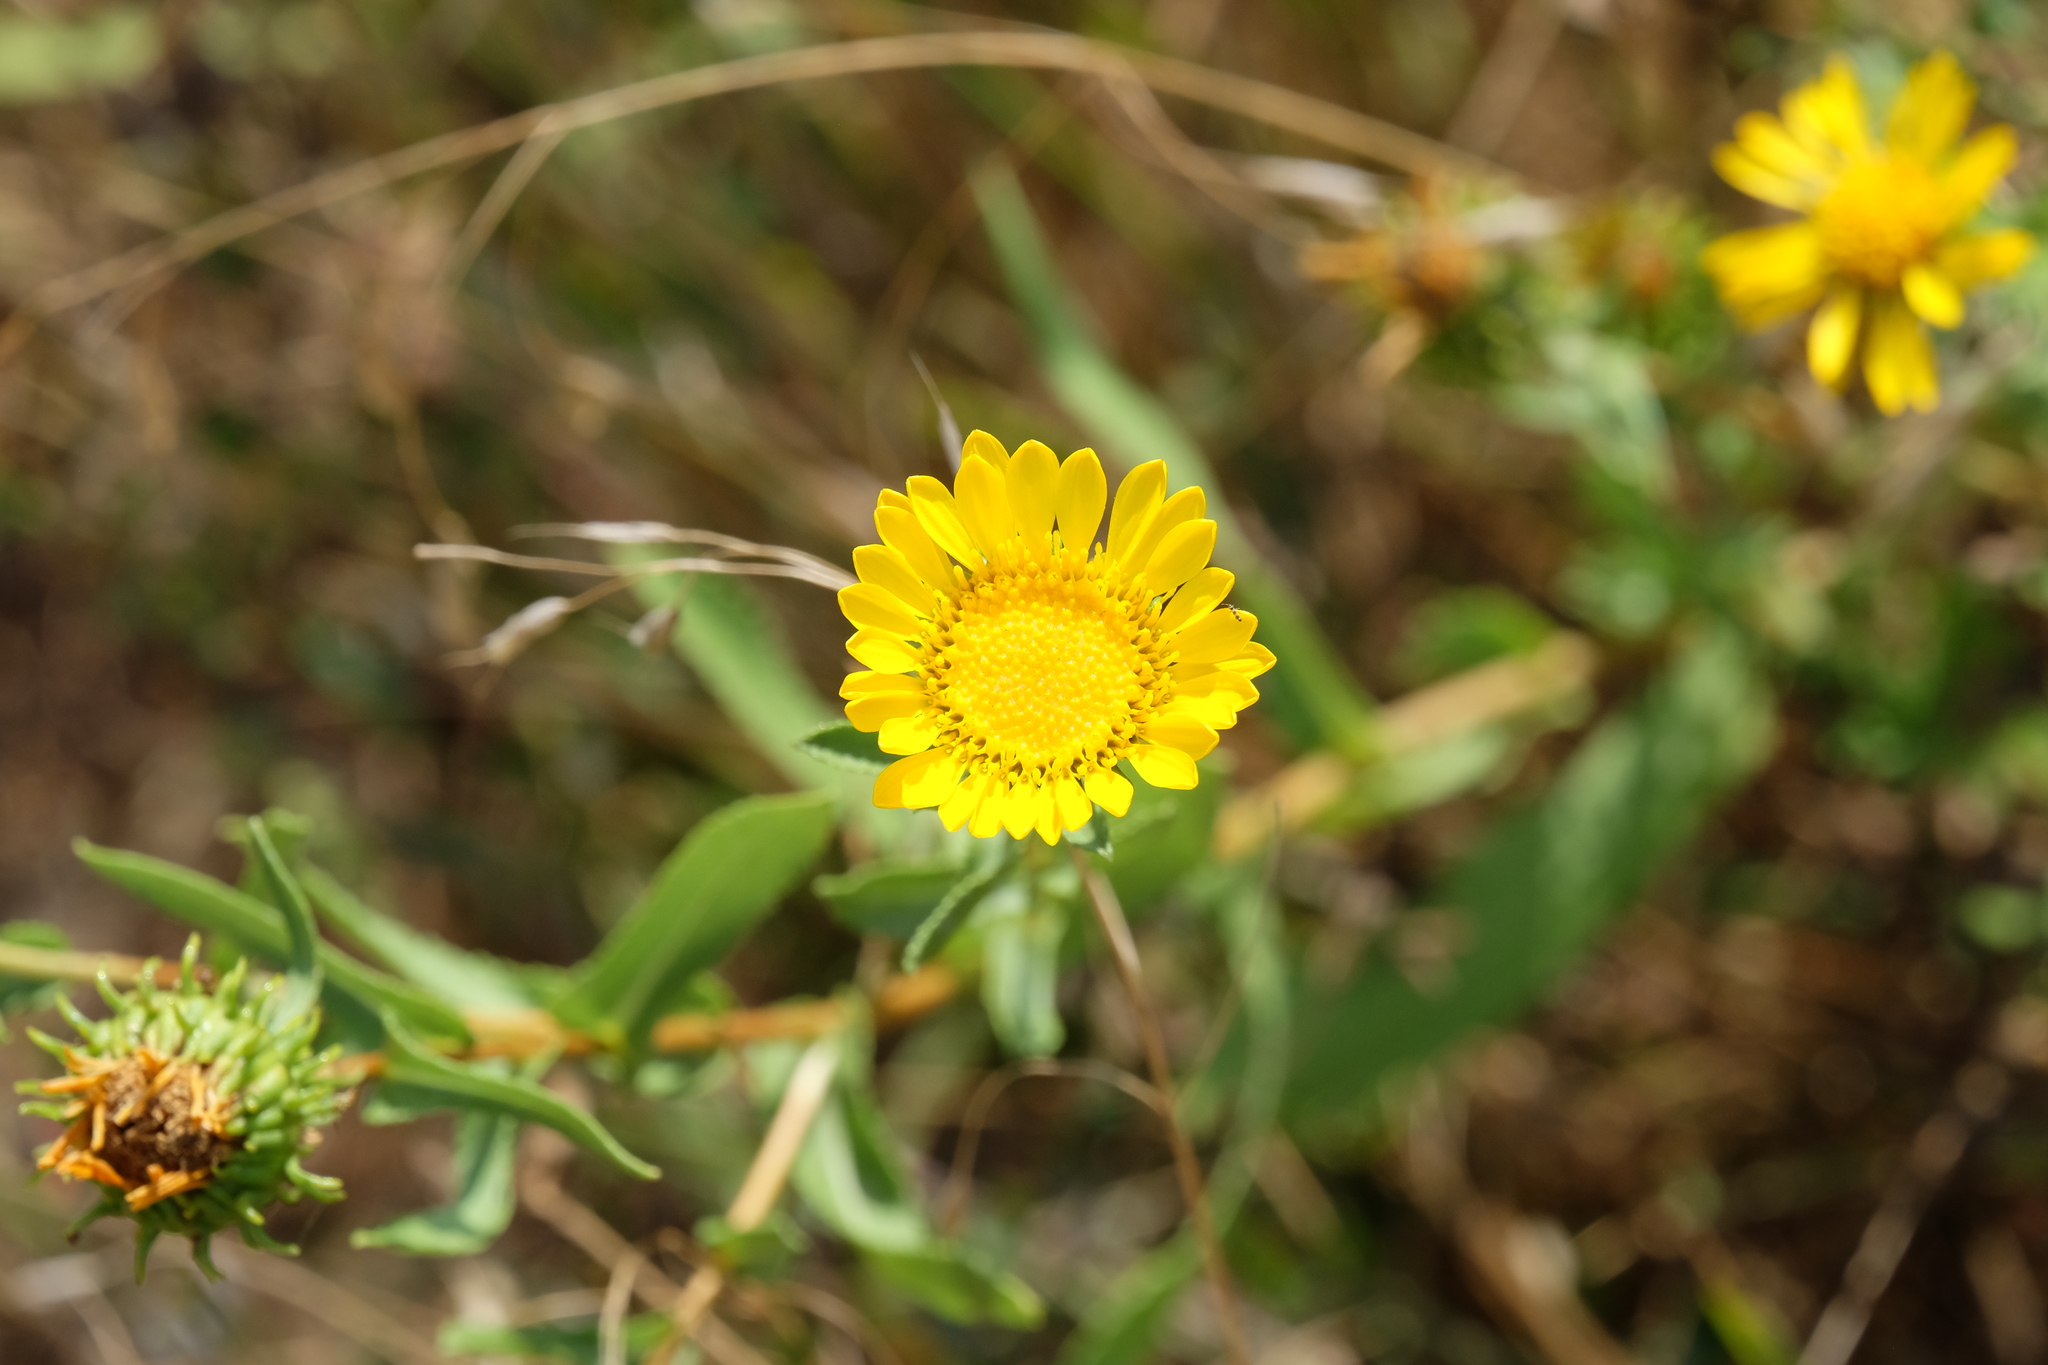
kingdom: Plantae
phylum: Tracheophyta
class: Magnoliopsida
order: Asterales
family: Asteraceae
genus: Grindelia
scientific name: Grindelia squarrosa
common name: Curly-cup gumweed
